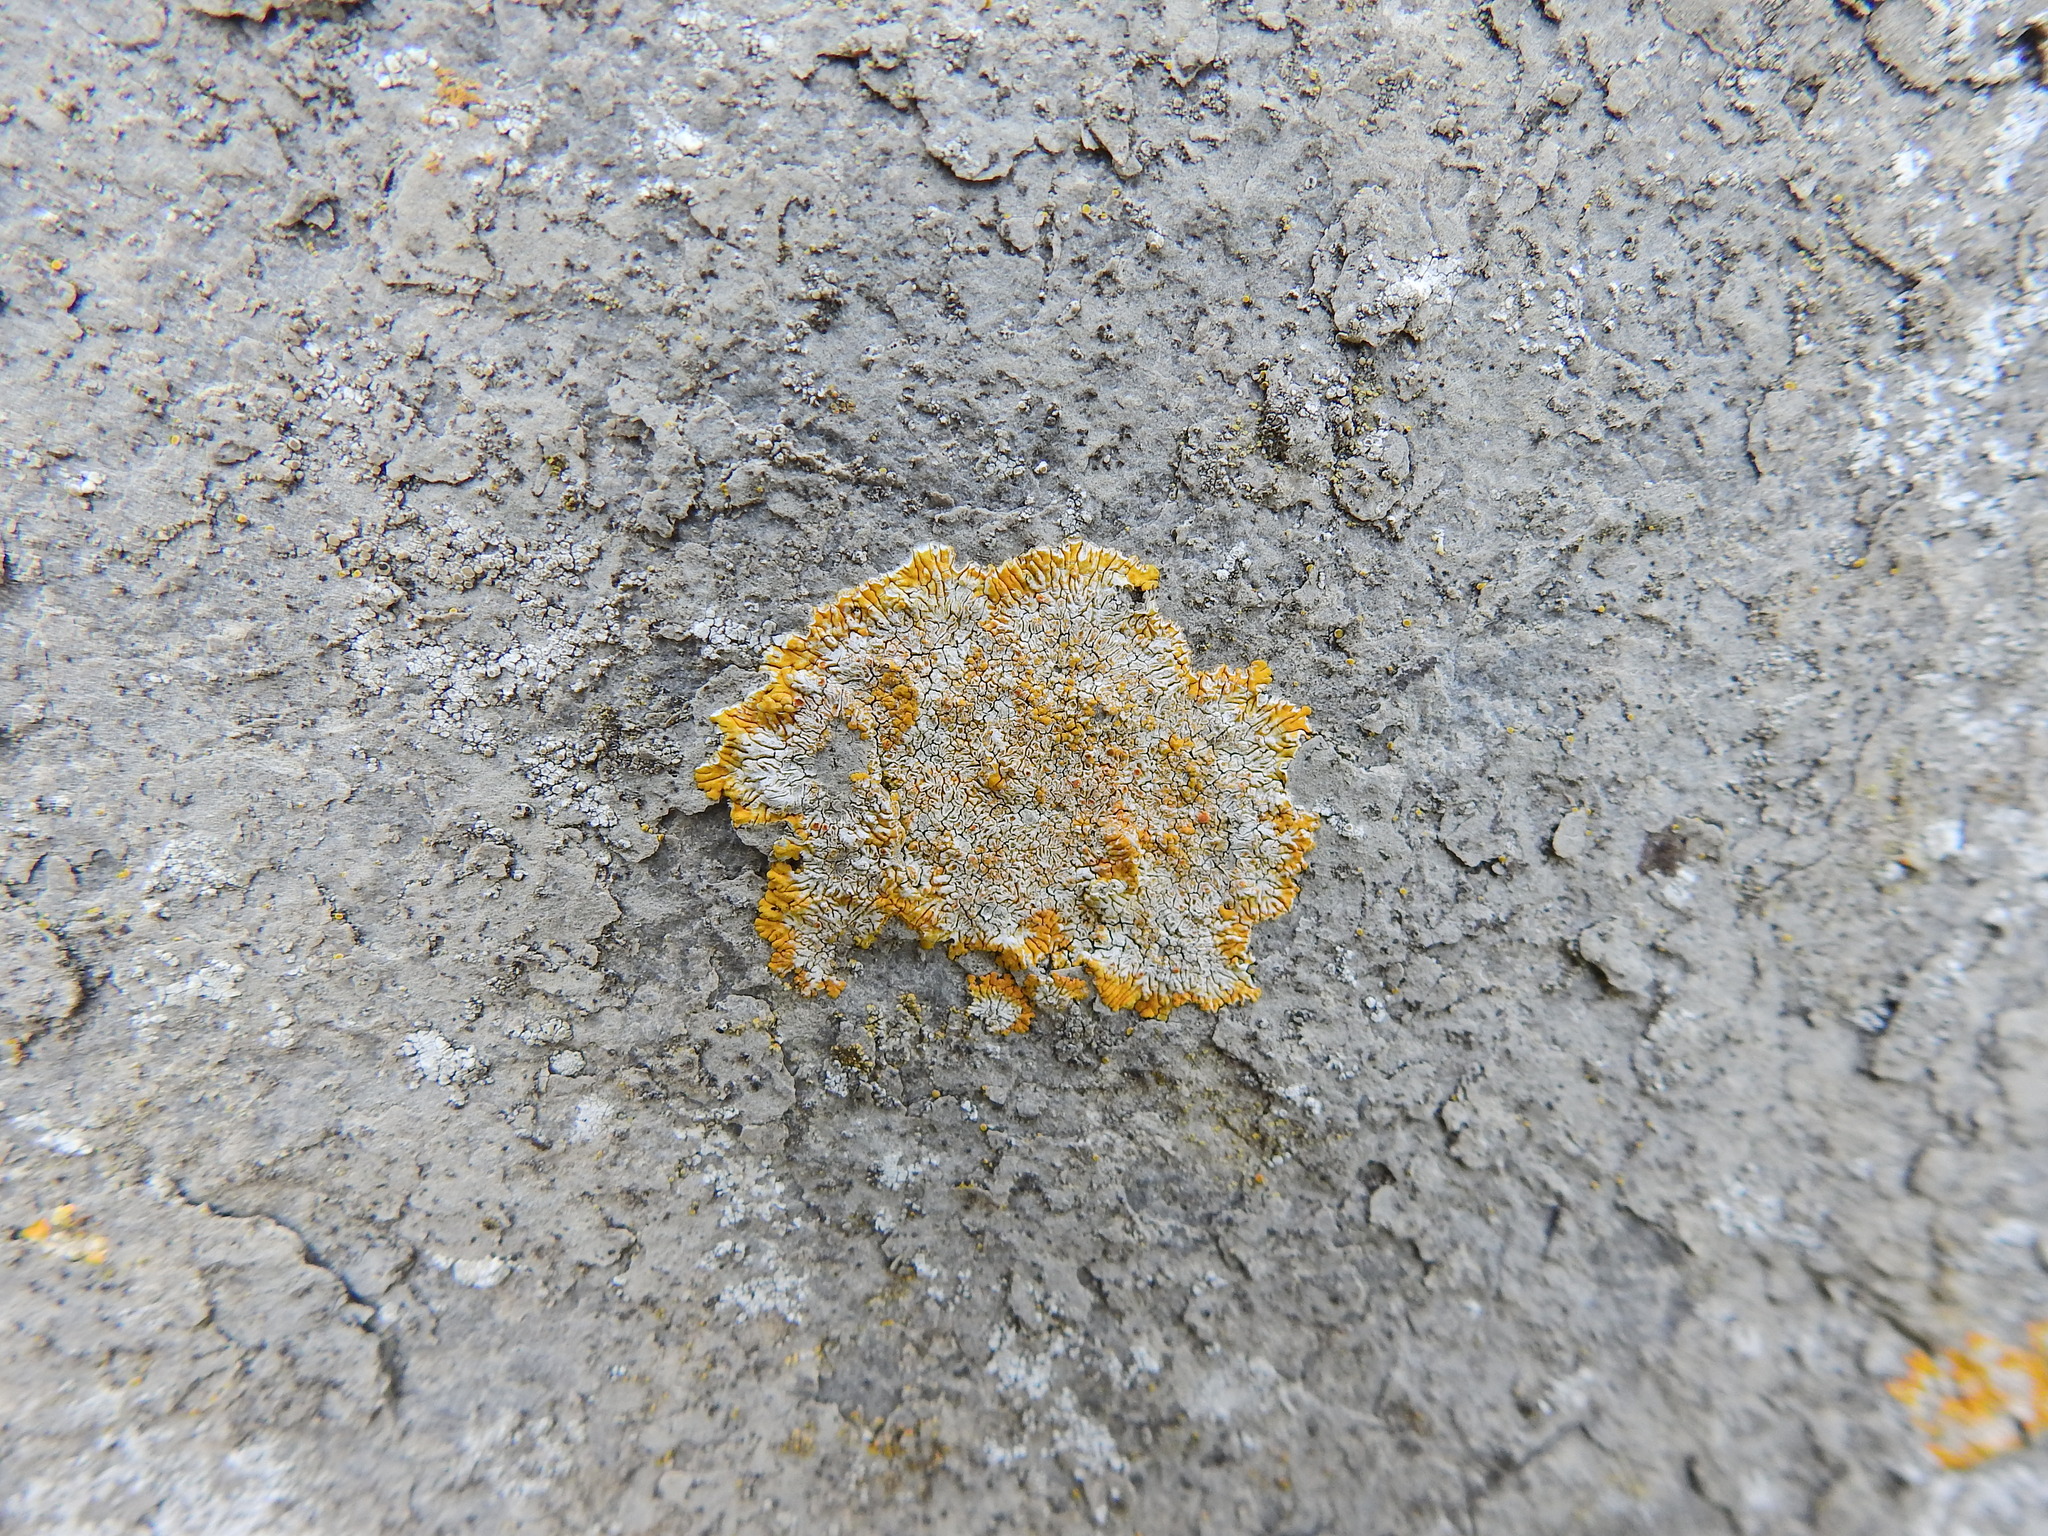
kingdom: Fungi
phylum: Ascomycota
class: Lecanoromycetes
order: Teloschistales
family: Teloschistaceae
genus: Variospora
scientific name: Variospora flavescens
